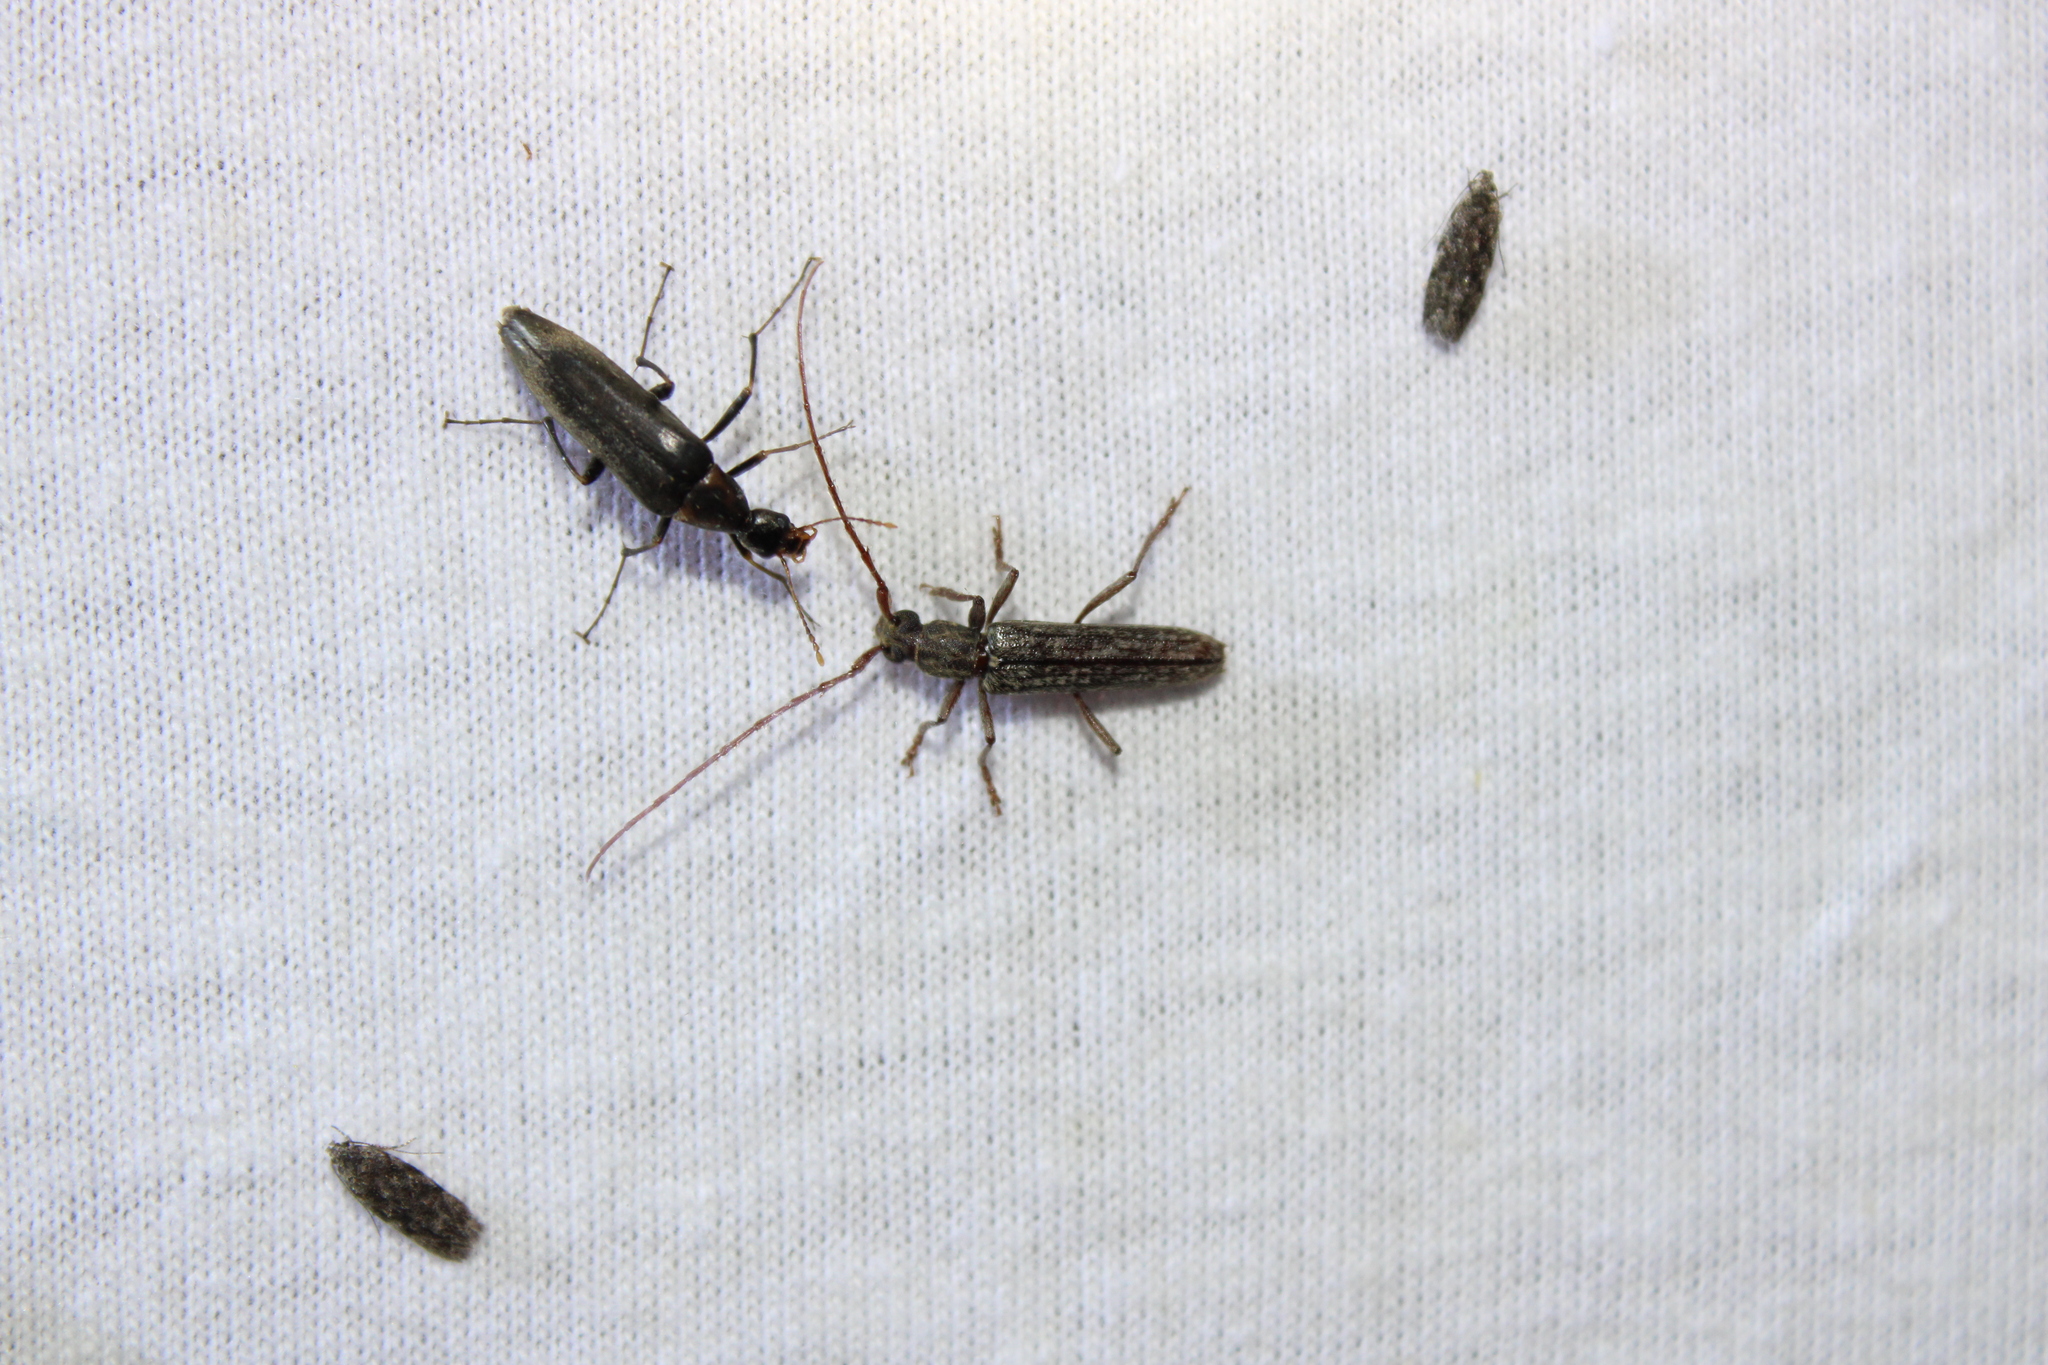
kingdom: Animalia
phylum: Arthropoda
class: Insecta
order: Coleoptera
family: Cerambycidae
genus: Anelaphus
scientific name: Anelaphus villosus
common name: Twig pruner
